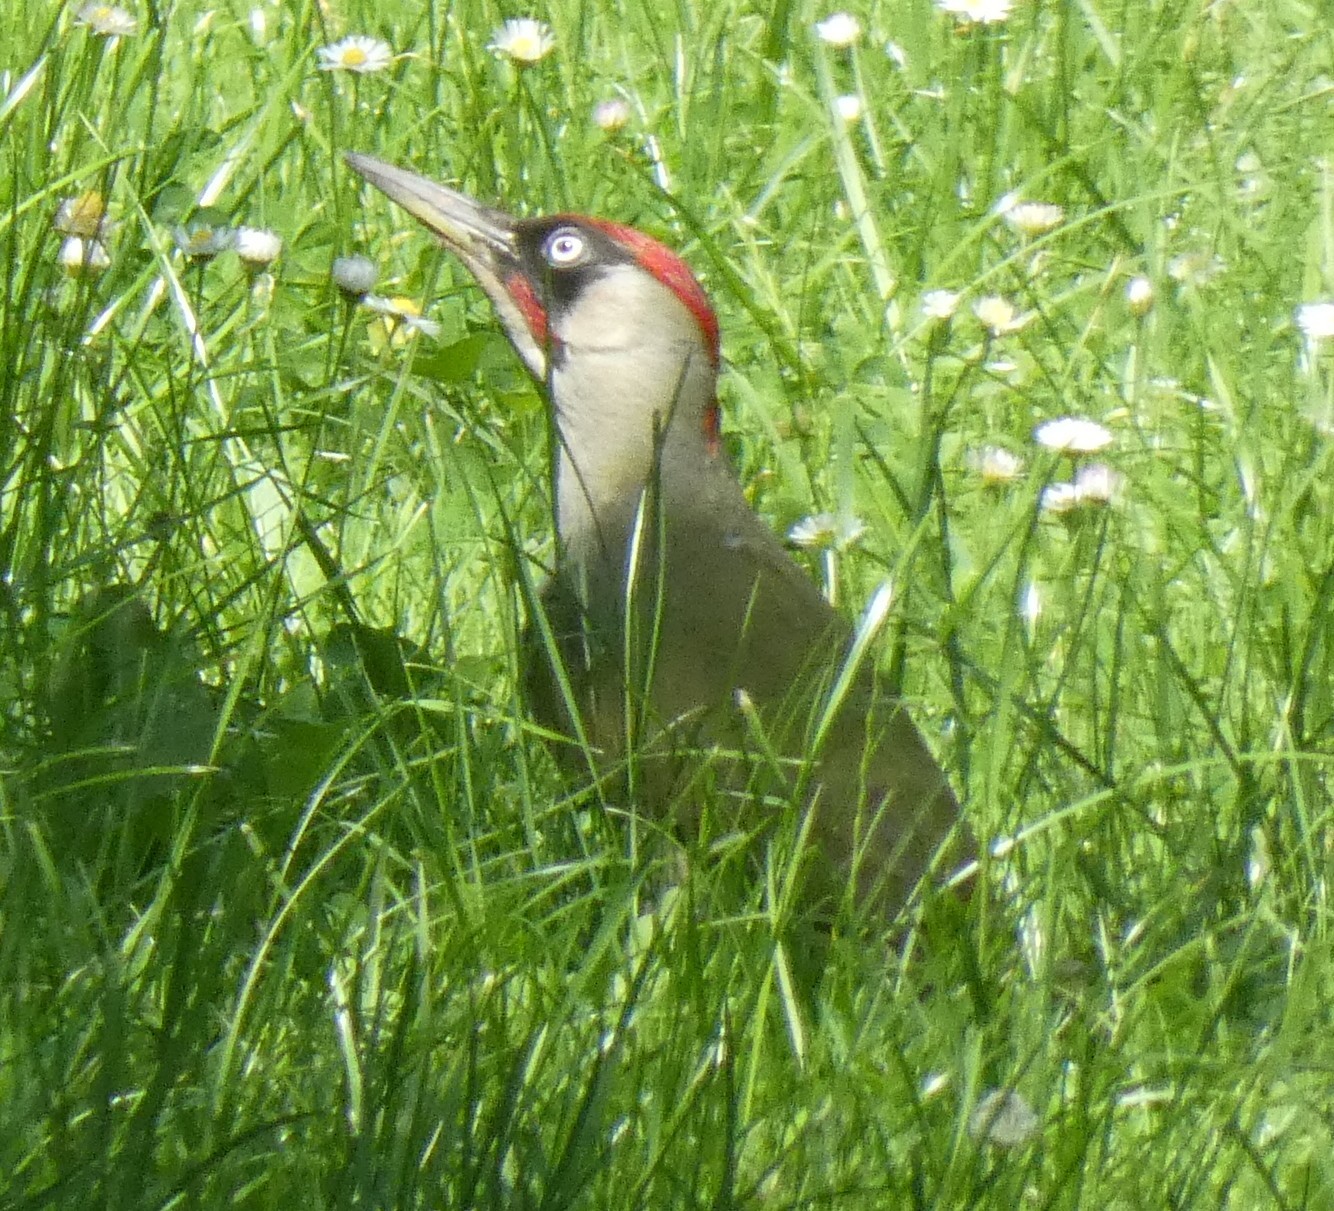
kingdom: Animalia
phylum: Chordata
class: Aves
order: Piciformes
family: Picidae
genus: Picus
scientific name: Picus viridis
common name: European green woodpecker
